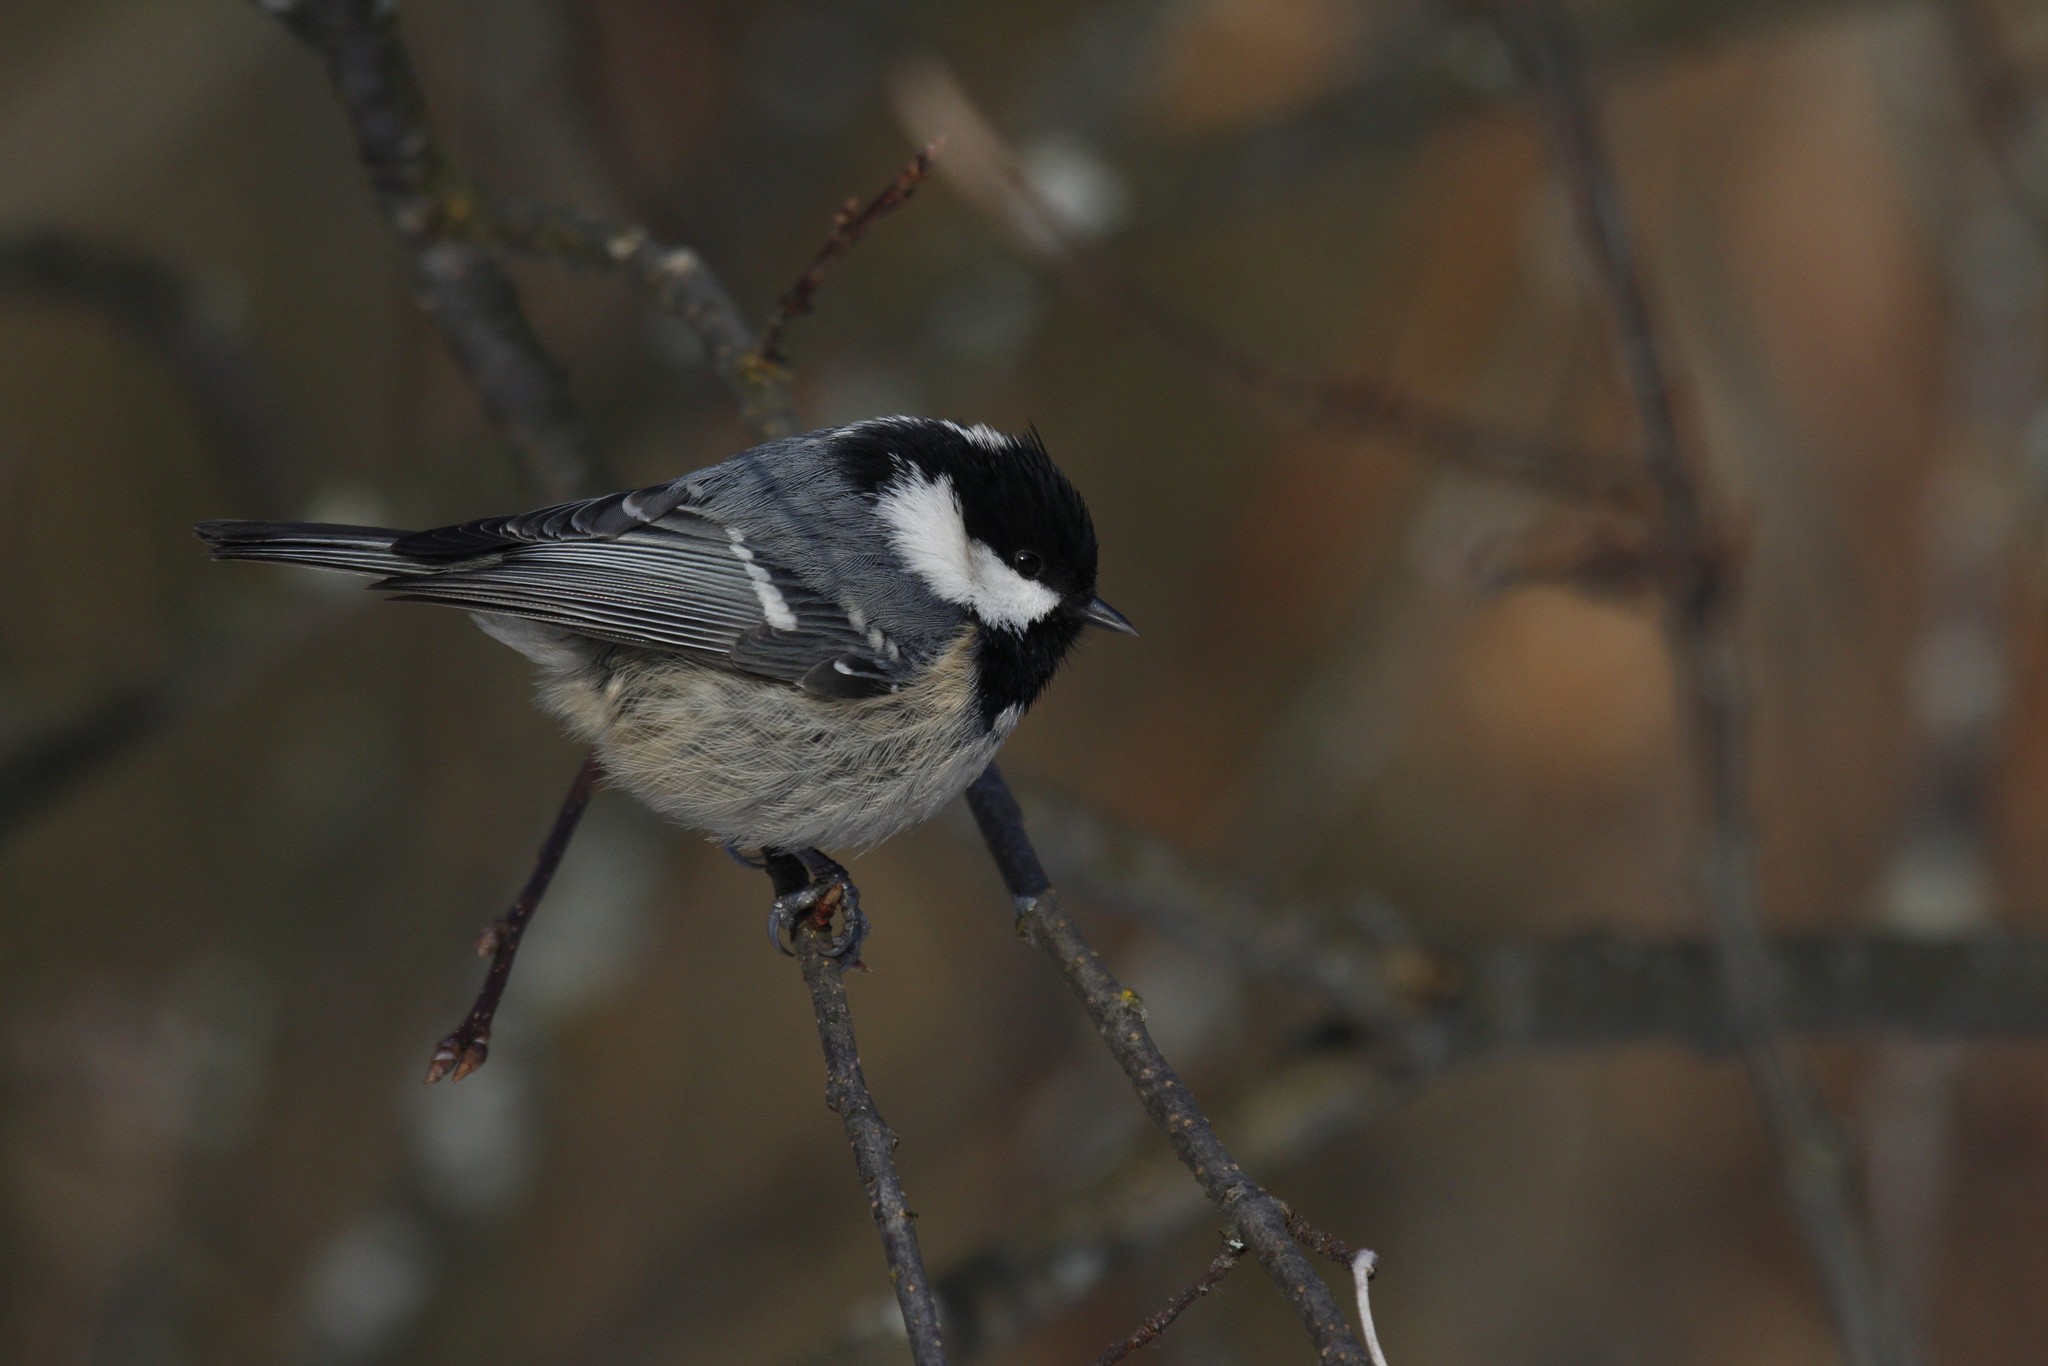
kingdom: Animalia
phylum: Chordata
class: Aves
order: Passeriformes
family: Paridae
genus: Periparus
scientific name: Periparus ater
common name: Coal tit
